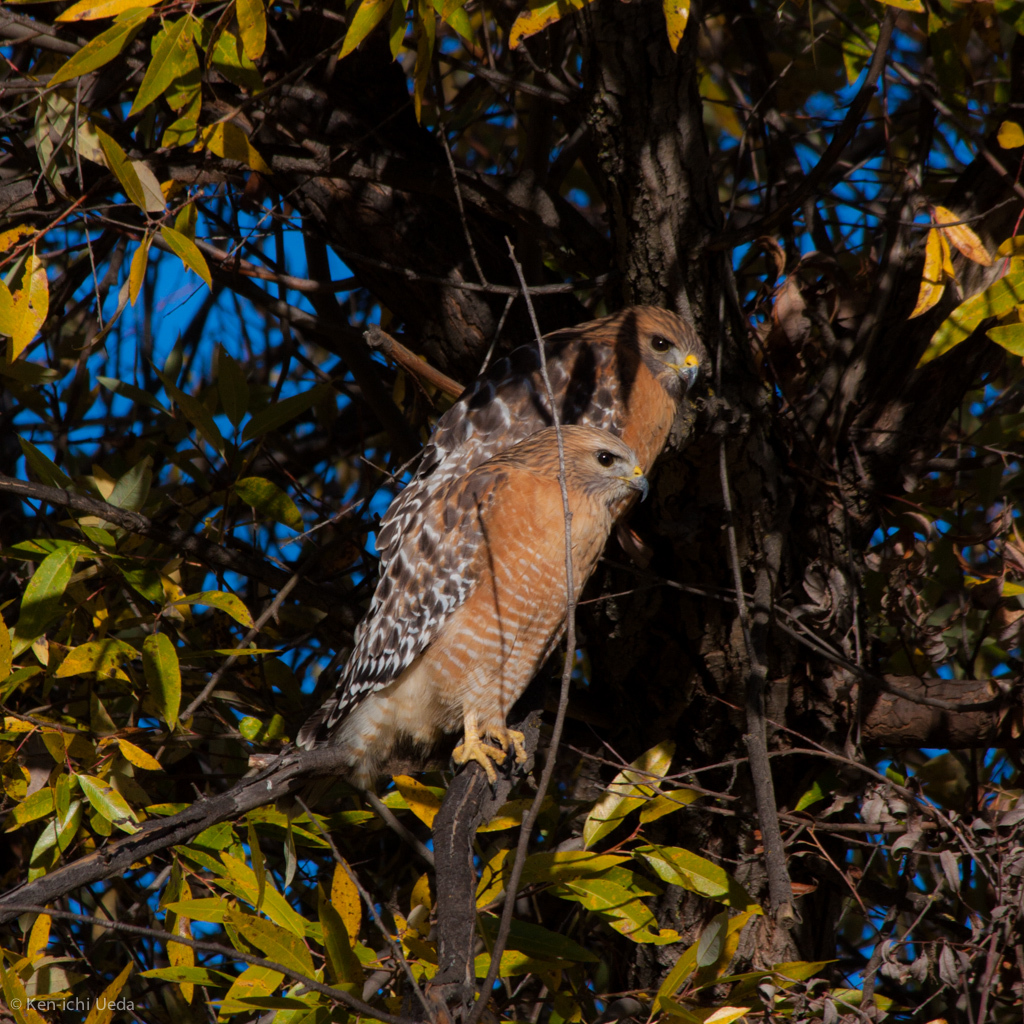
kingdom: Animalia
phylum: Chordata
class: Aves
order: Accipitriformes
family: Accipitridae
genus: Buteo
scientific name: Buteo lineatus
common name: Red-shouldered hawk
